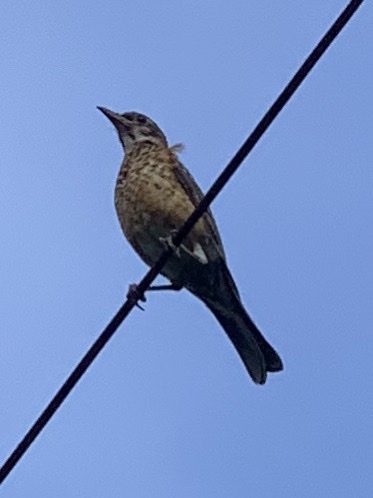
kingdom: Animalia
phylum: Chordata
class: Aves
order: Passeriformes
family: Turdidae
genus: Turdus
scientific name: Turdus migratorius
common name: American robin
